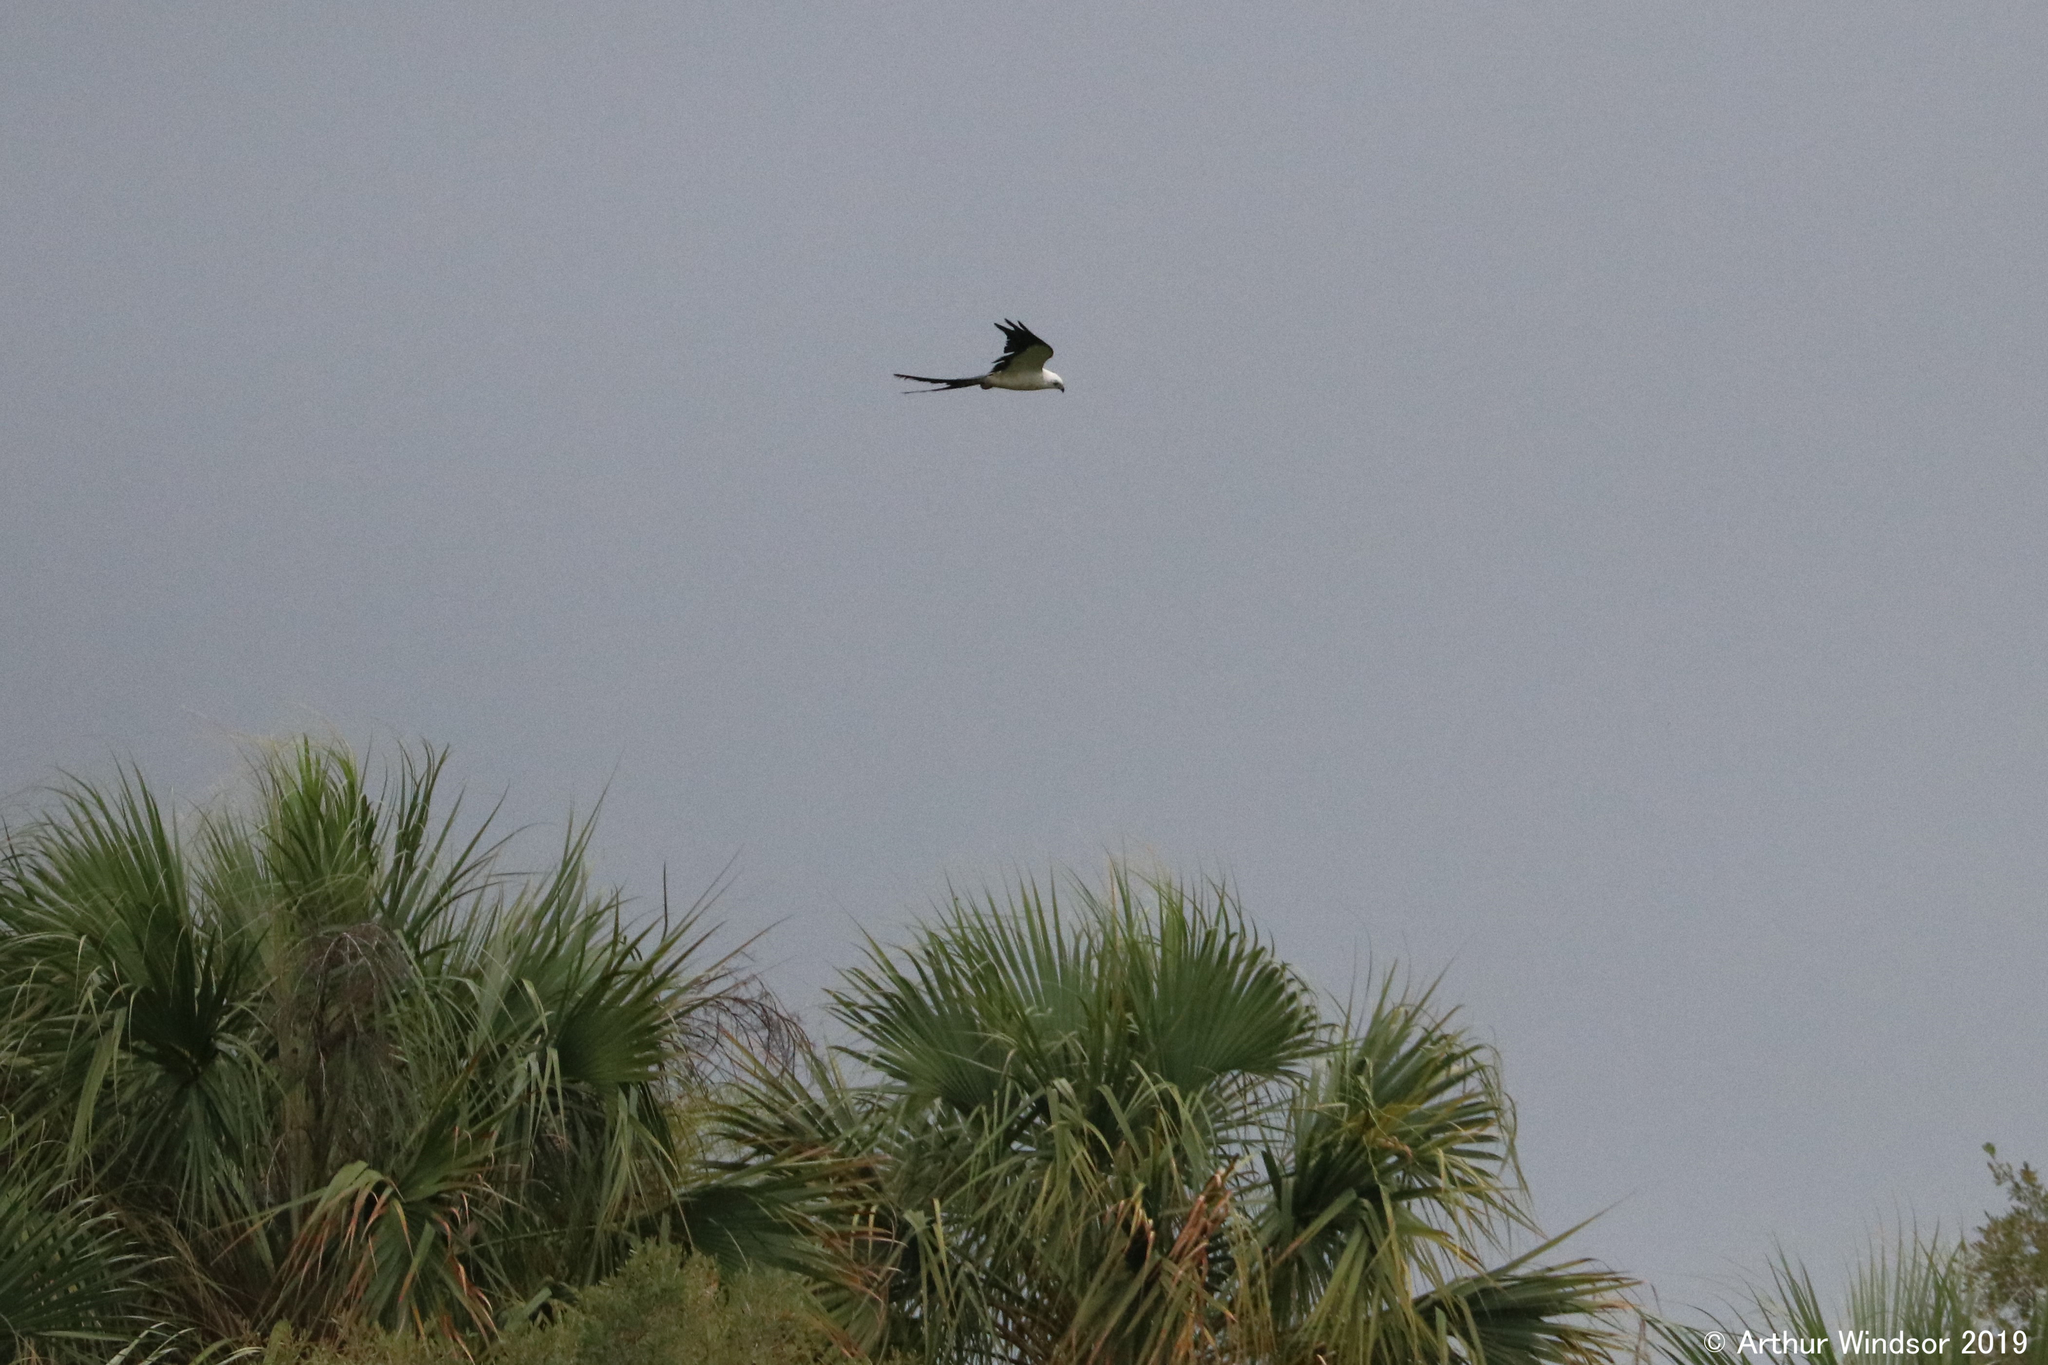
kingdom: Animalia
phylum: Chordata
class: Aves
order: Accipitriformes
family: Accipitridae
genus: Elanoides
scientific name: Elanoides forficatus
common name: Swallow-tailed kite
